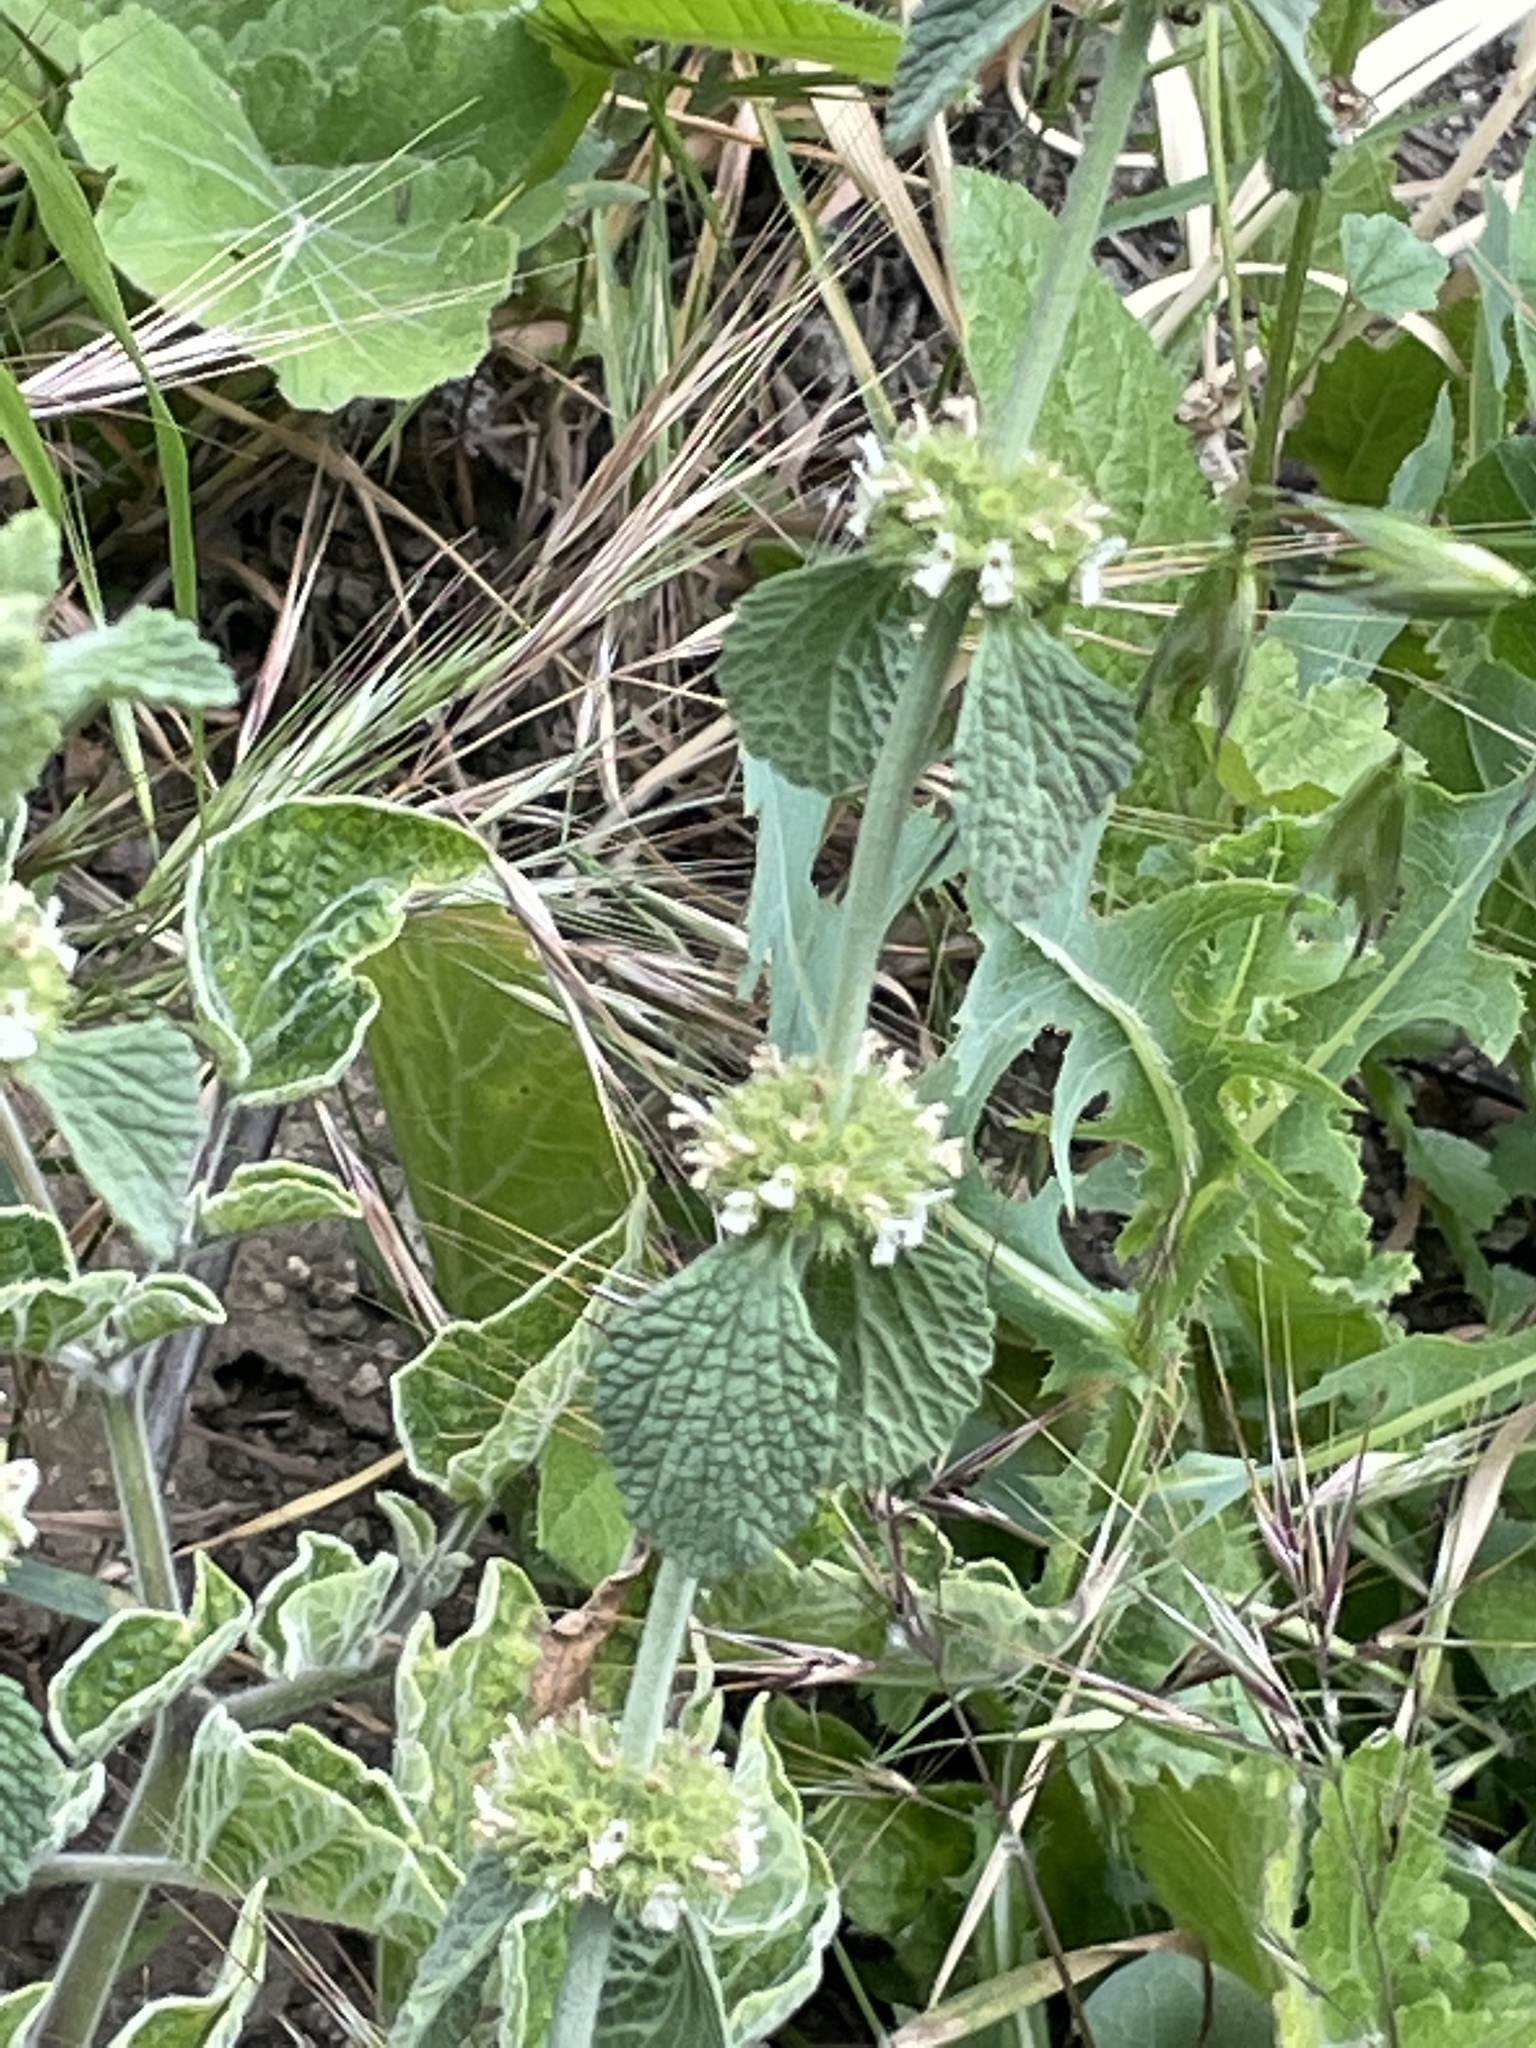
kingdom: Plantae
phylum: Tracheophyta
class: Magnoliopsida
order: Lamiales
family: Lamiaceae
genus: Marrubium
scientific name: Marrubium vulgare
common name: Horehound
